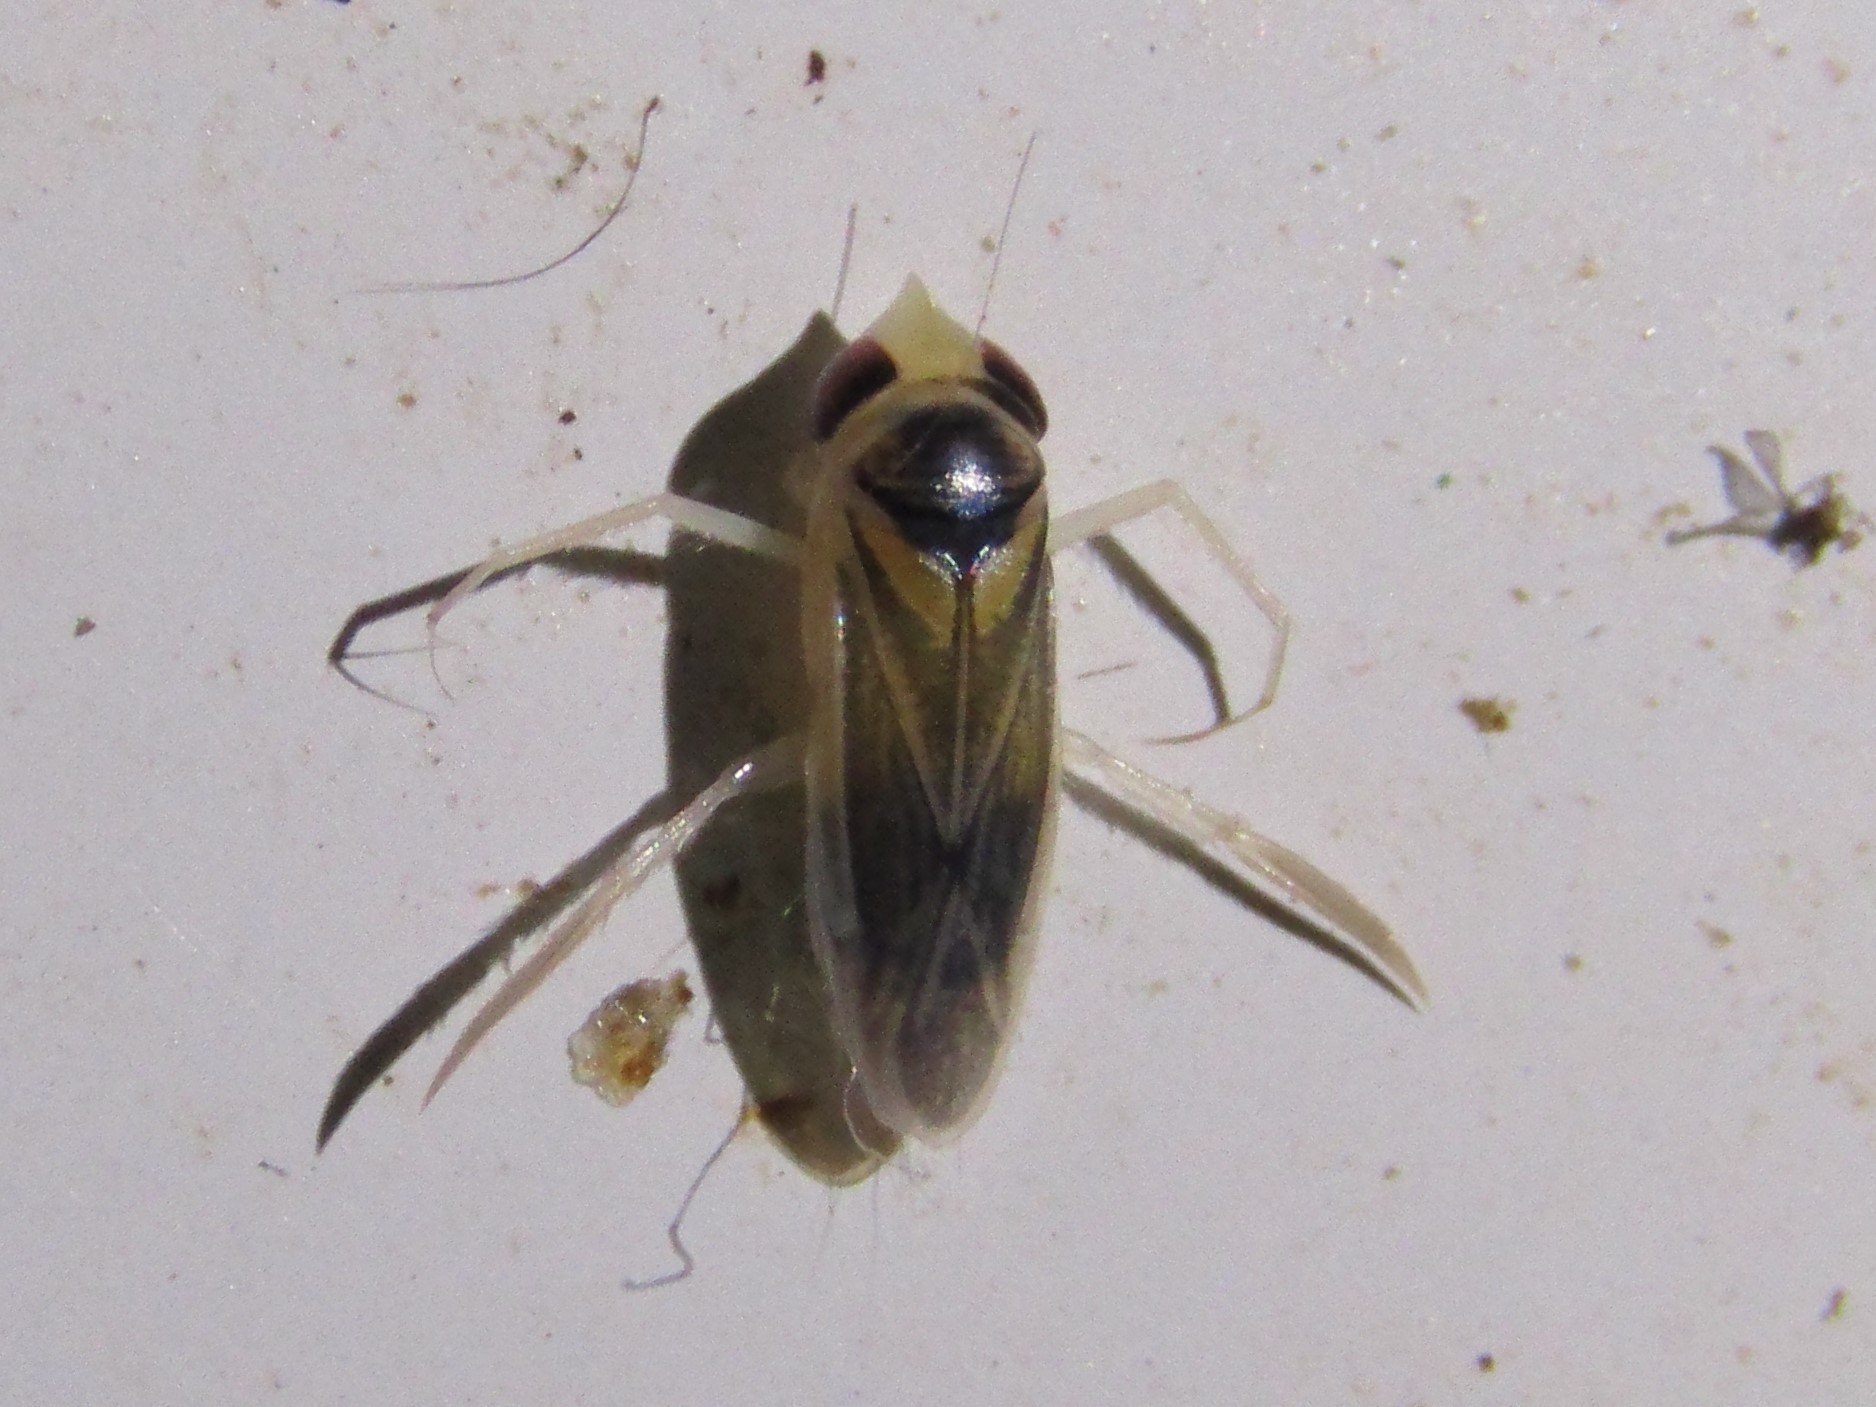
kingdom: Animalia
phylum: Arthropoda
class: Insecta
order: Hemiptera
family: Corixidae
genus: Ramphocorixa
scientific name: Ramphocorixa acuminata
